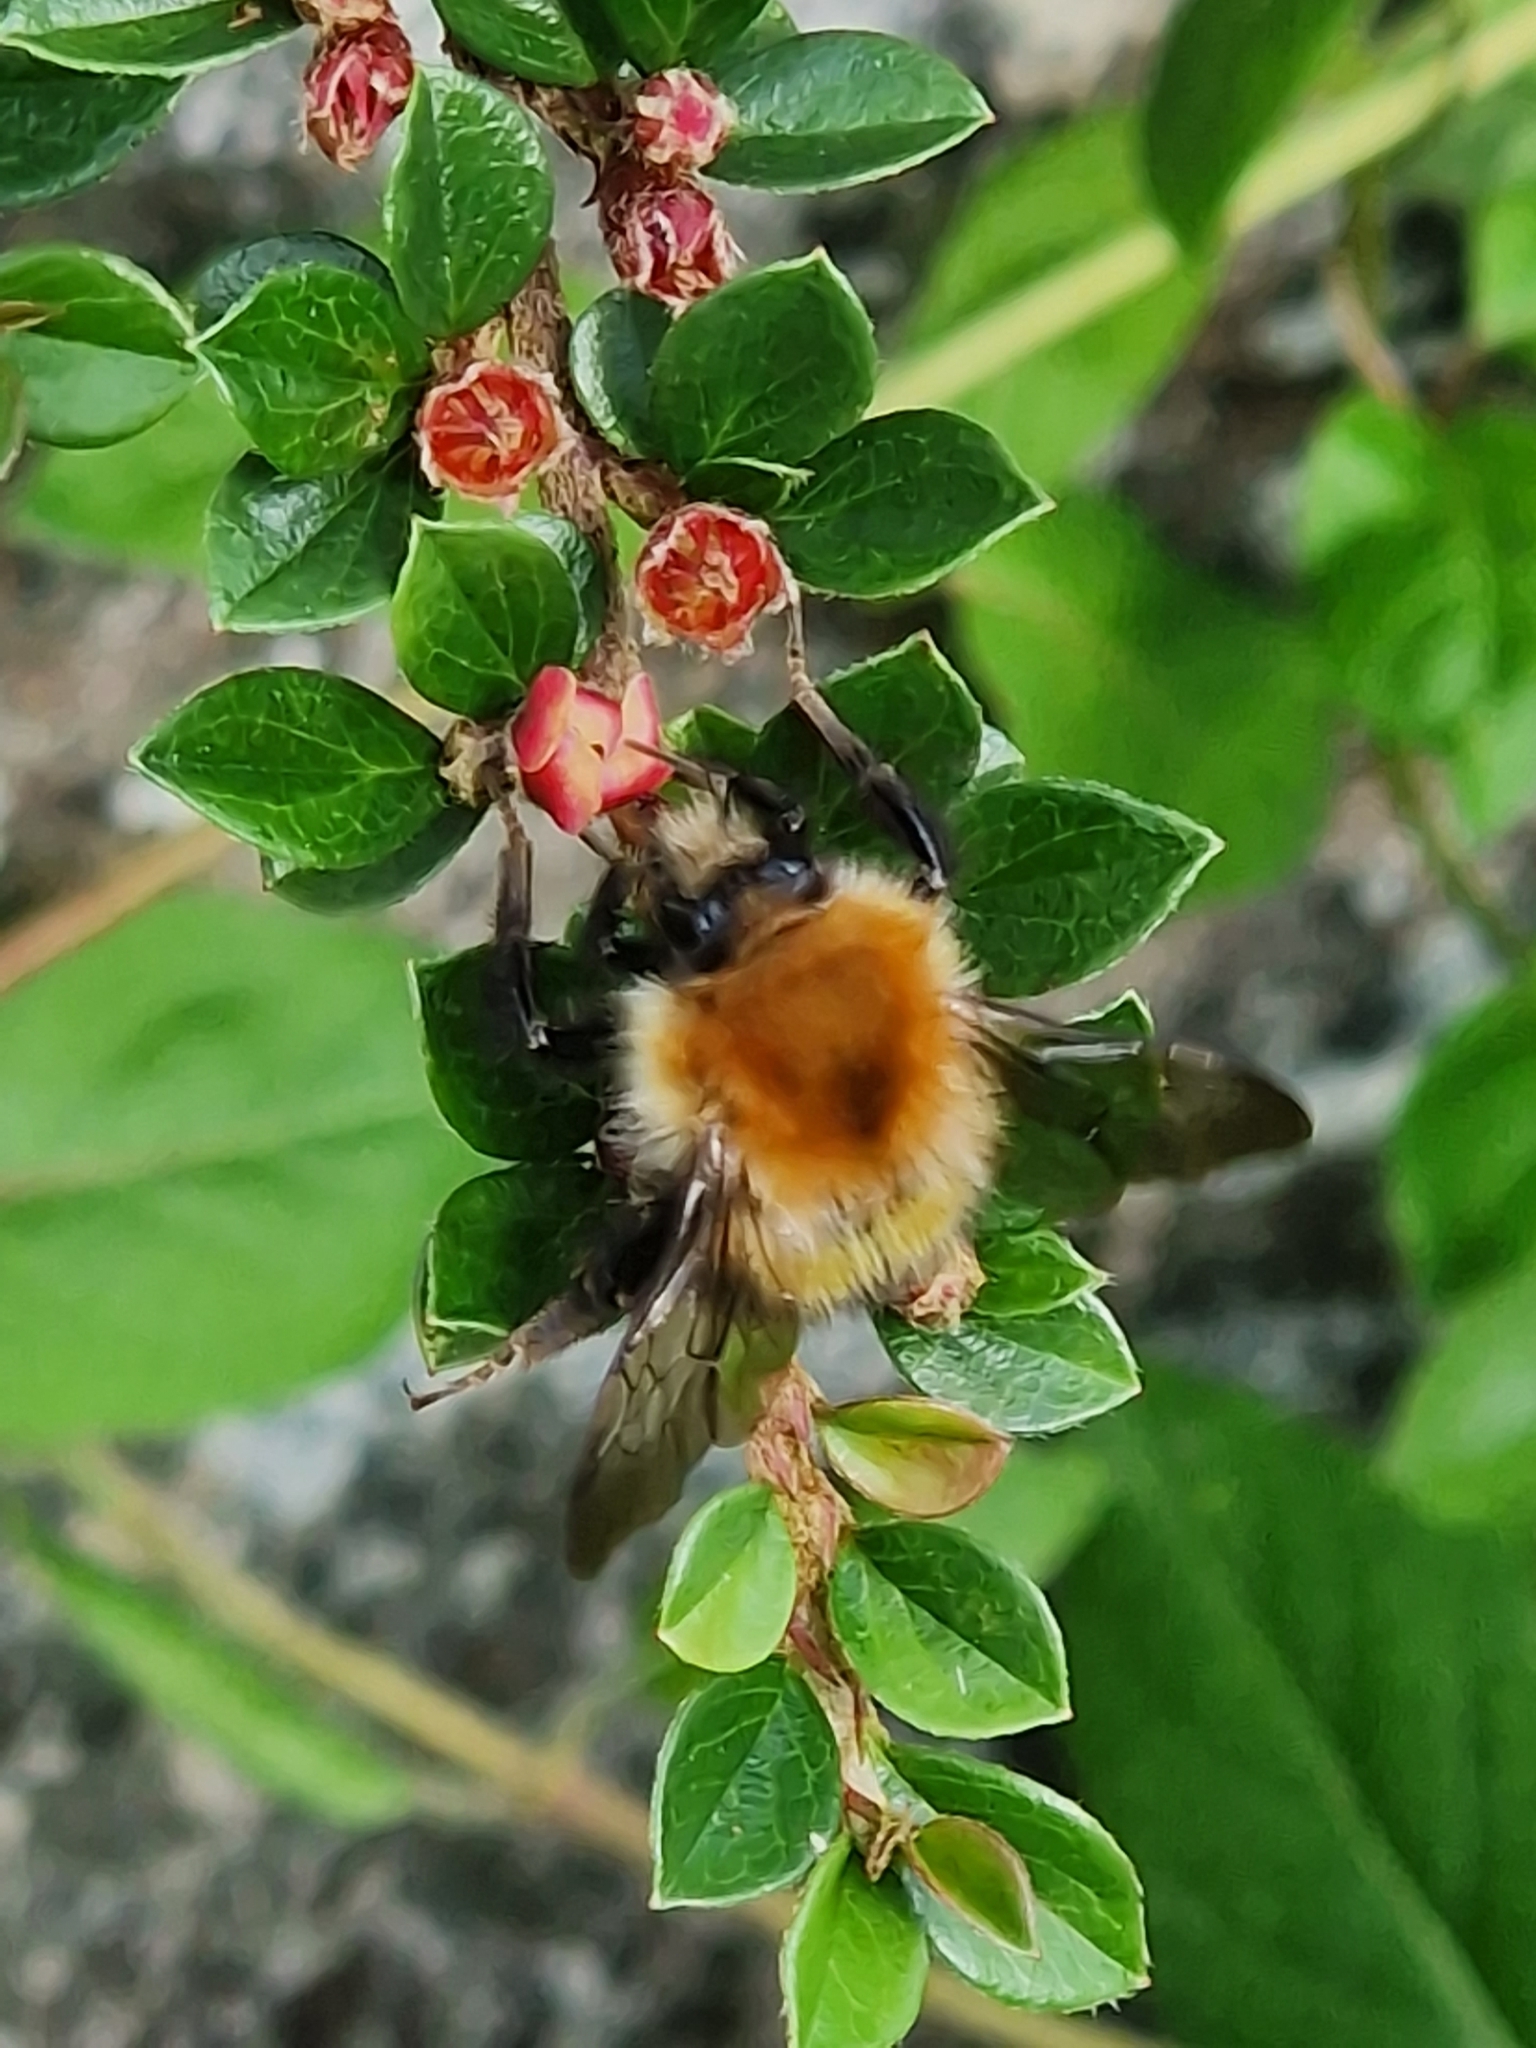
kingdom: Animalia
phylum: Arthropoda
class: Insecta
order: Hymenoptera
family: Apidae
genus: Bombus
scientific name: Bombus pascuorum
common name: Common carder bee
